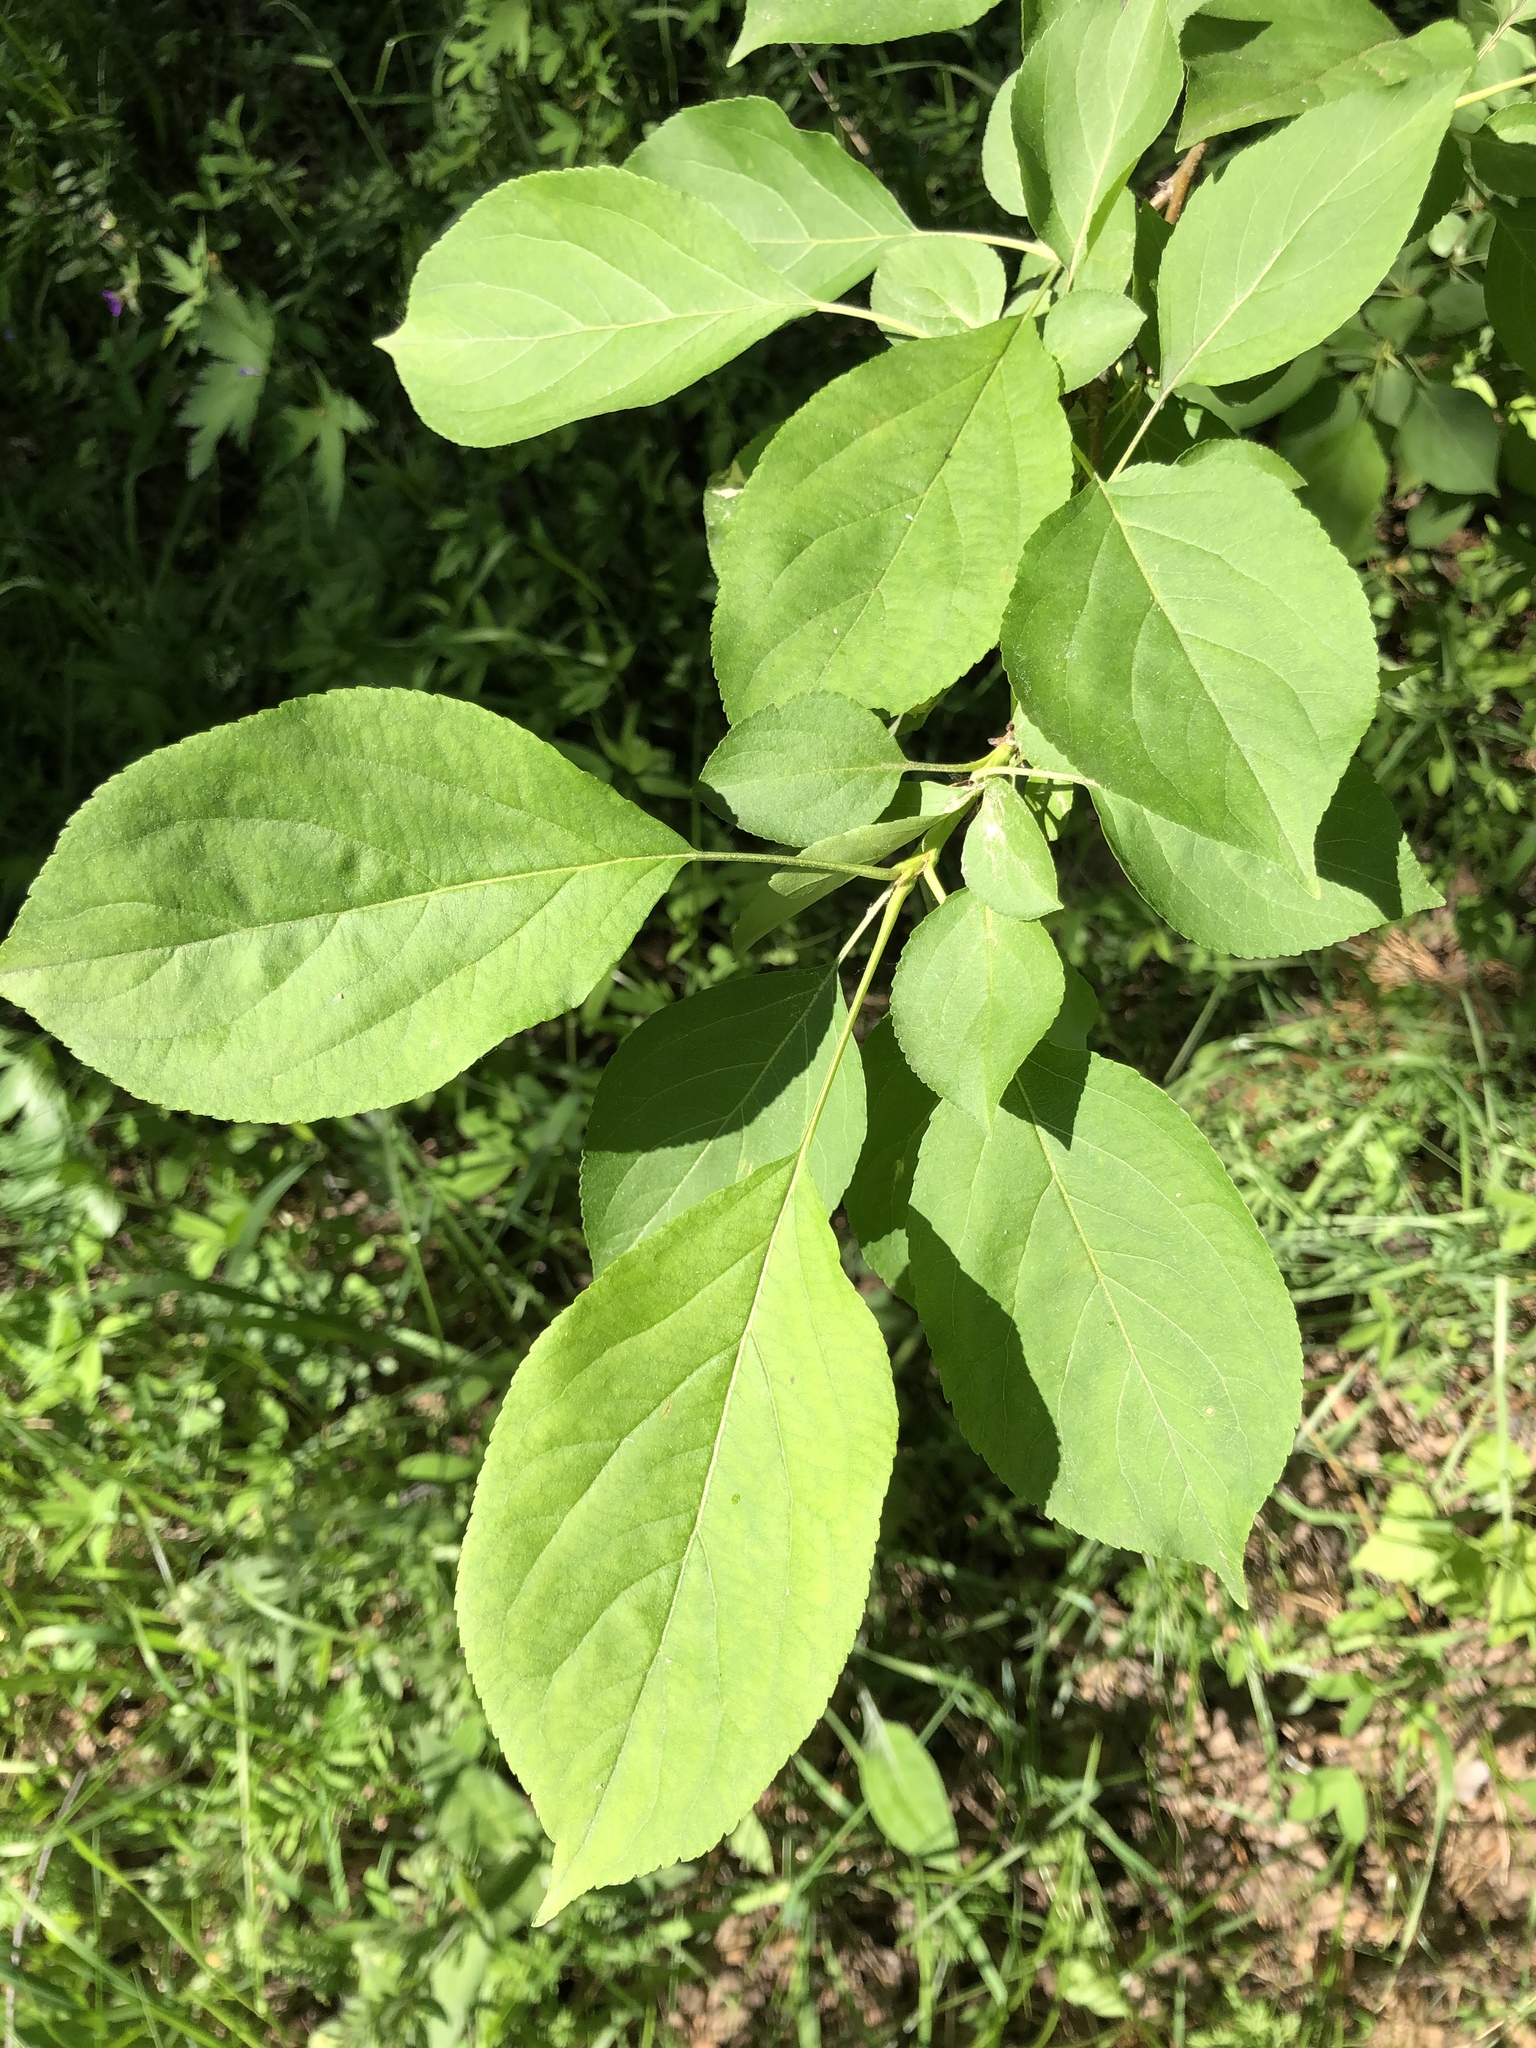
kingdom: Plantae
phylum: Tracheophyta
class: Magnoliopsida
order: Rosales
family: Rosaceae
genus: Malus
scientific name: Malus baccata
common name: Siberian crab
